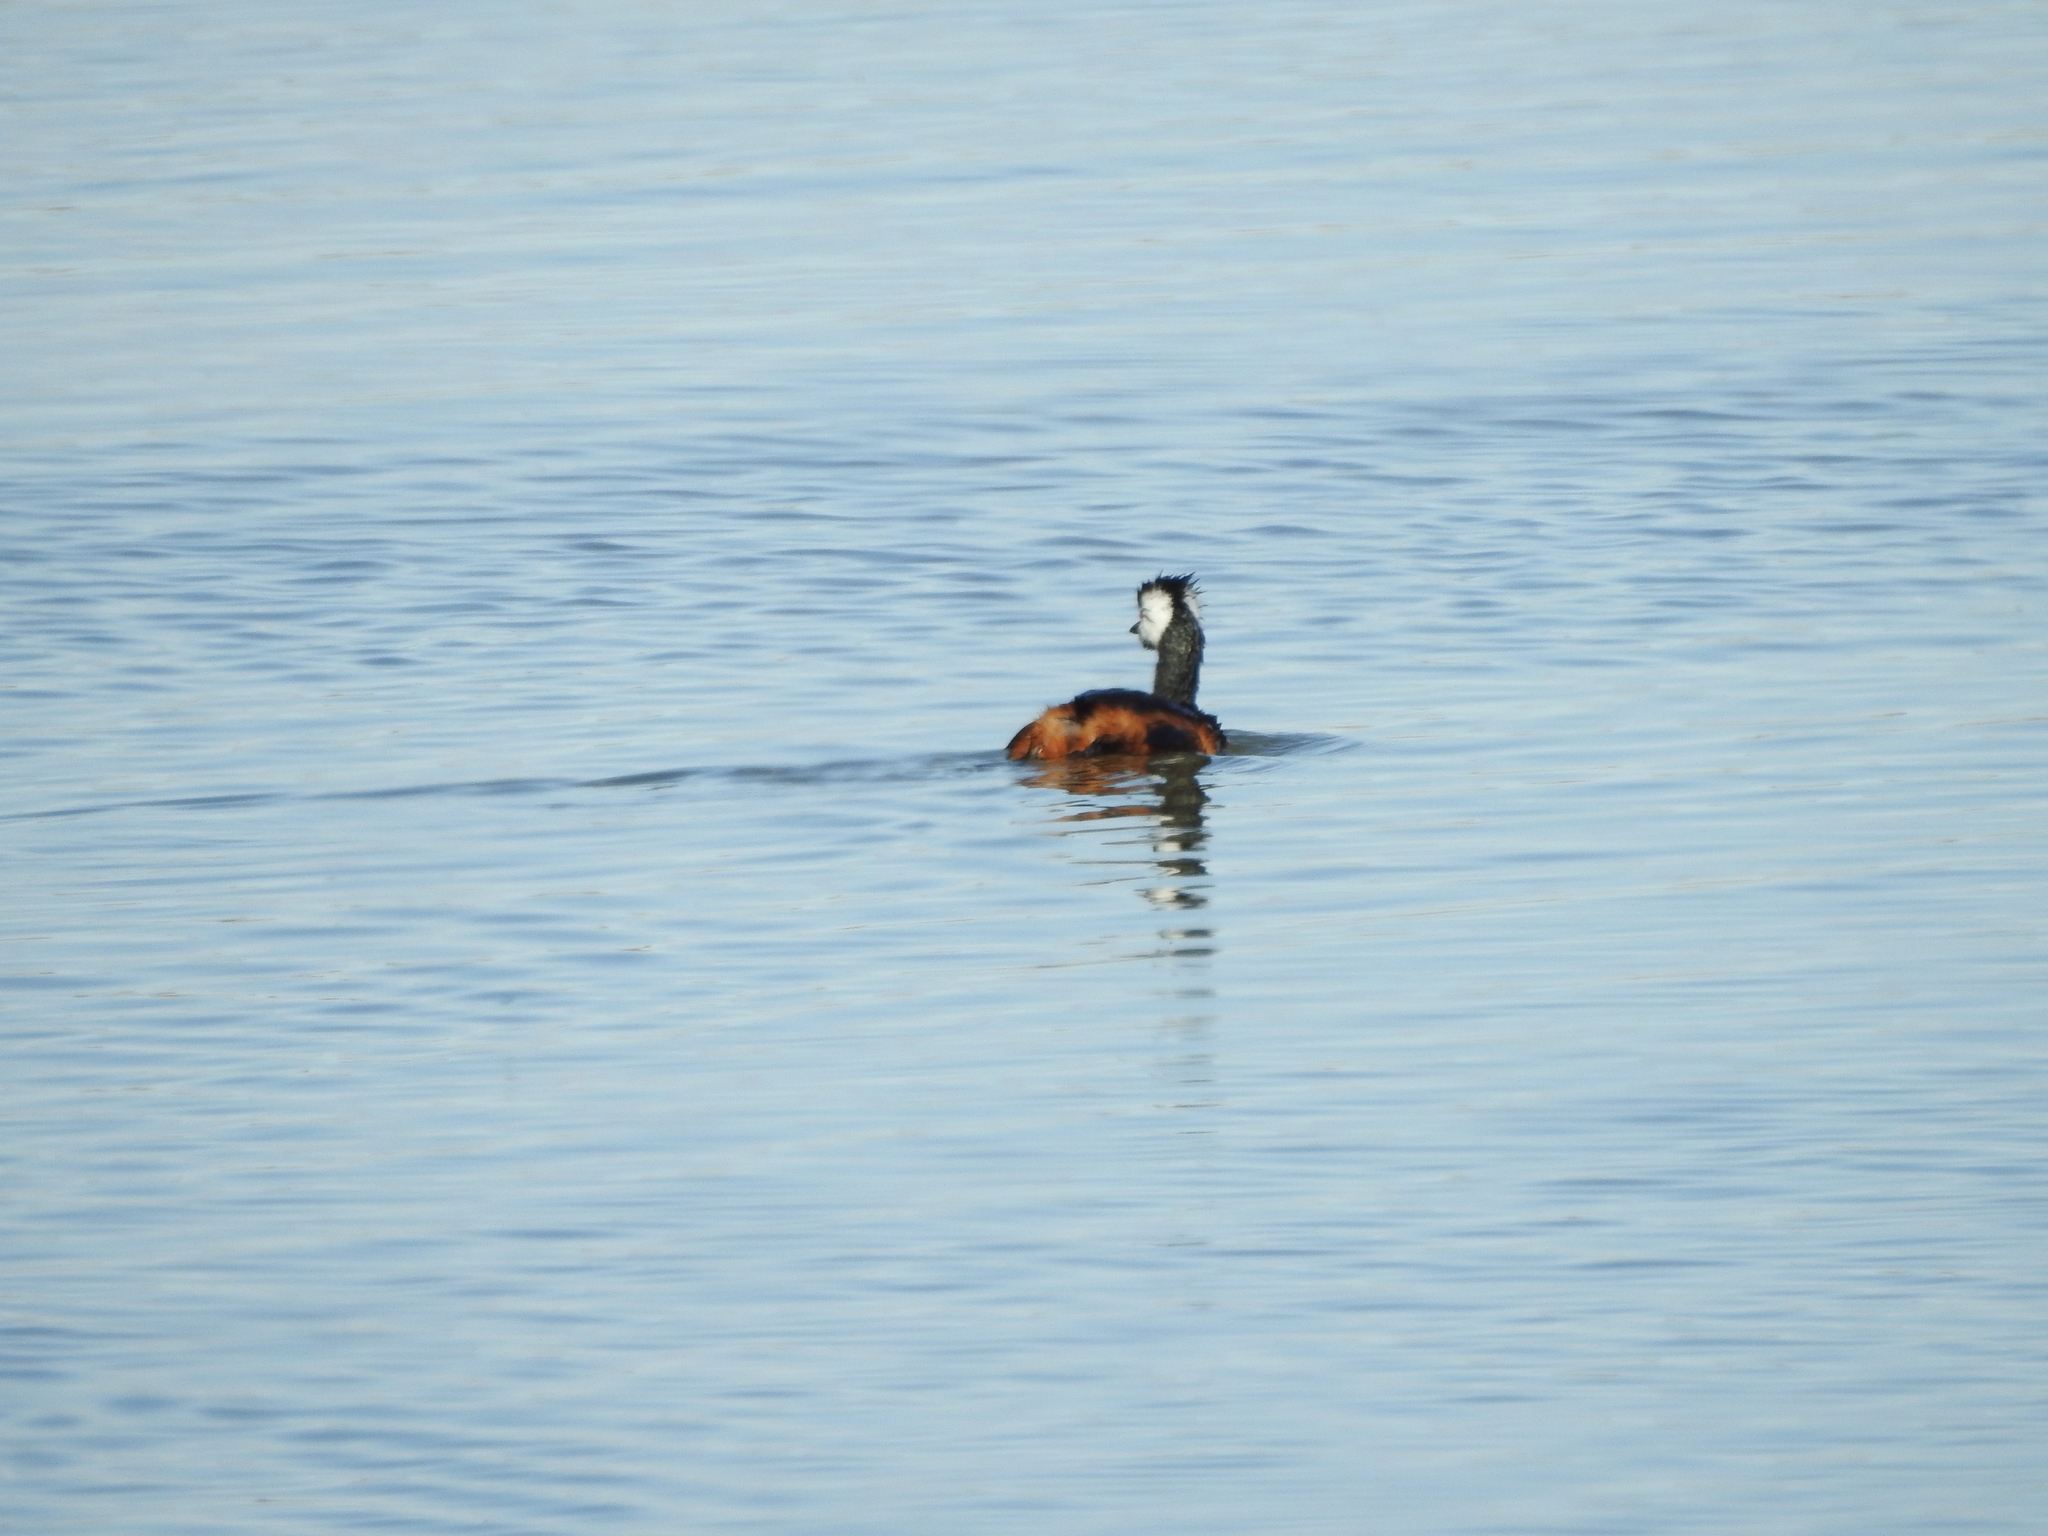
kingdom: Animalia
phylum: Chordata
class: Aves
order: Podicipediformes
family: Podicipedidae
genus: Rollandia
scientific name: Rollandia rolland
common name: White-tufted grebe
